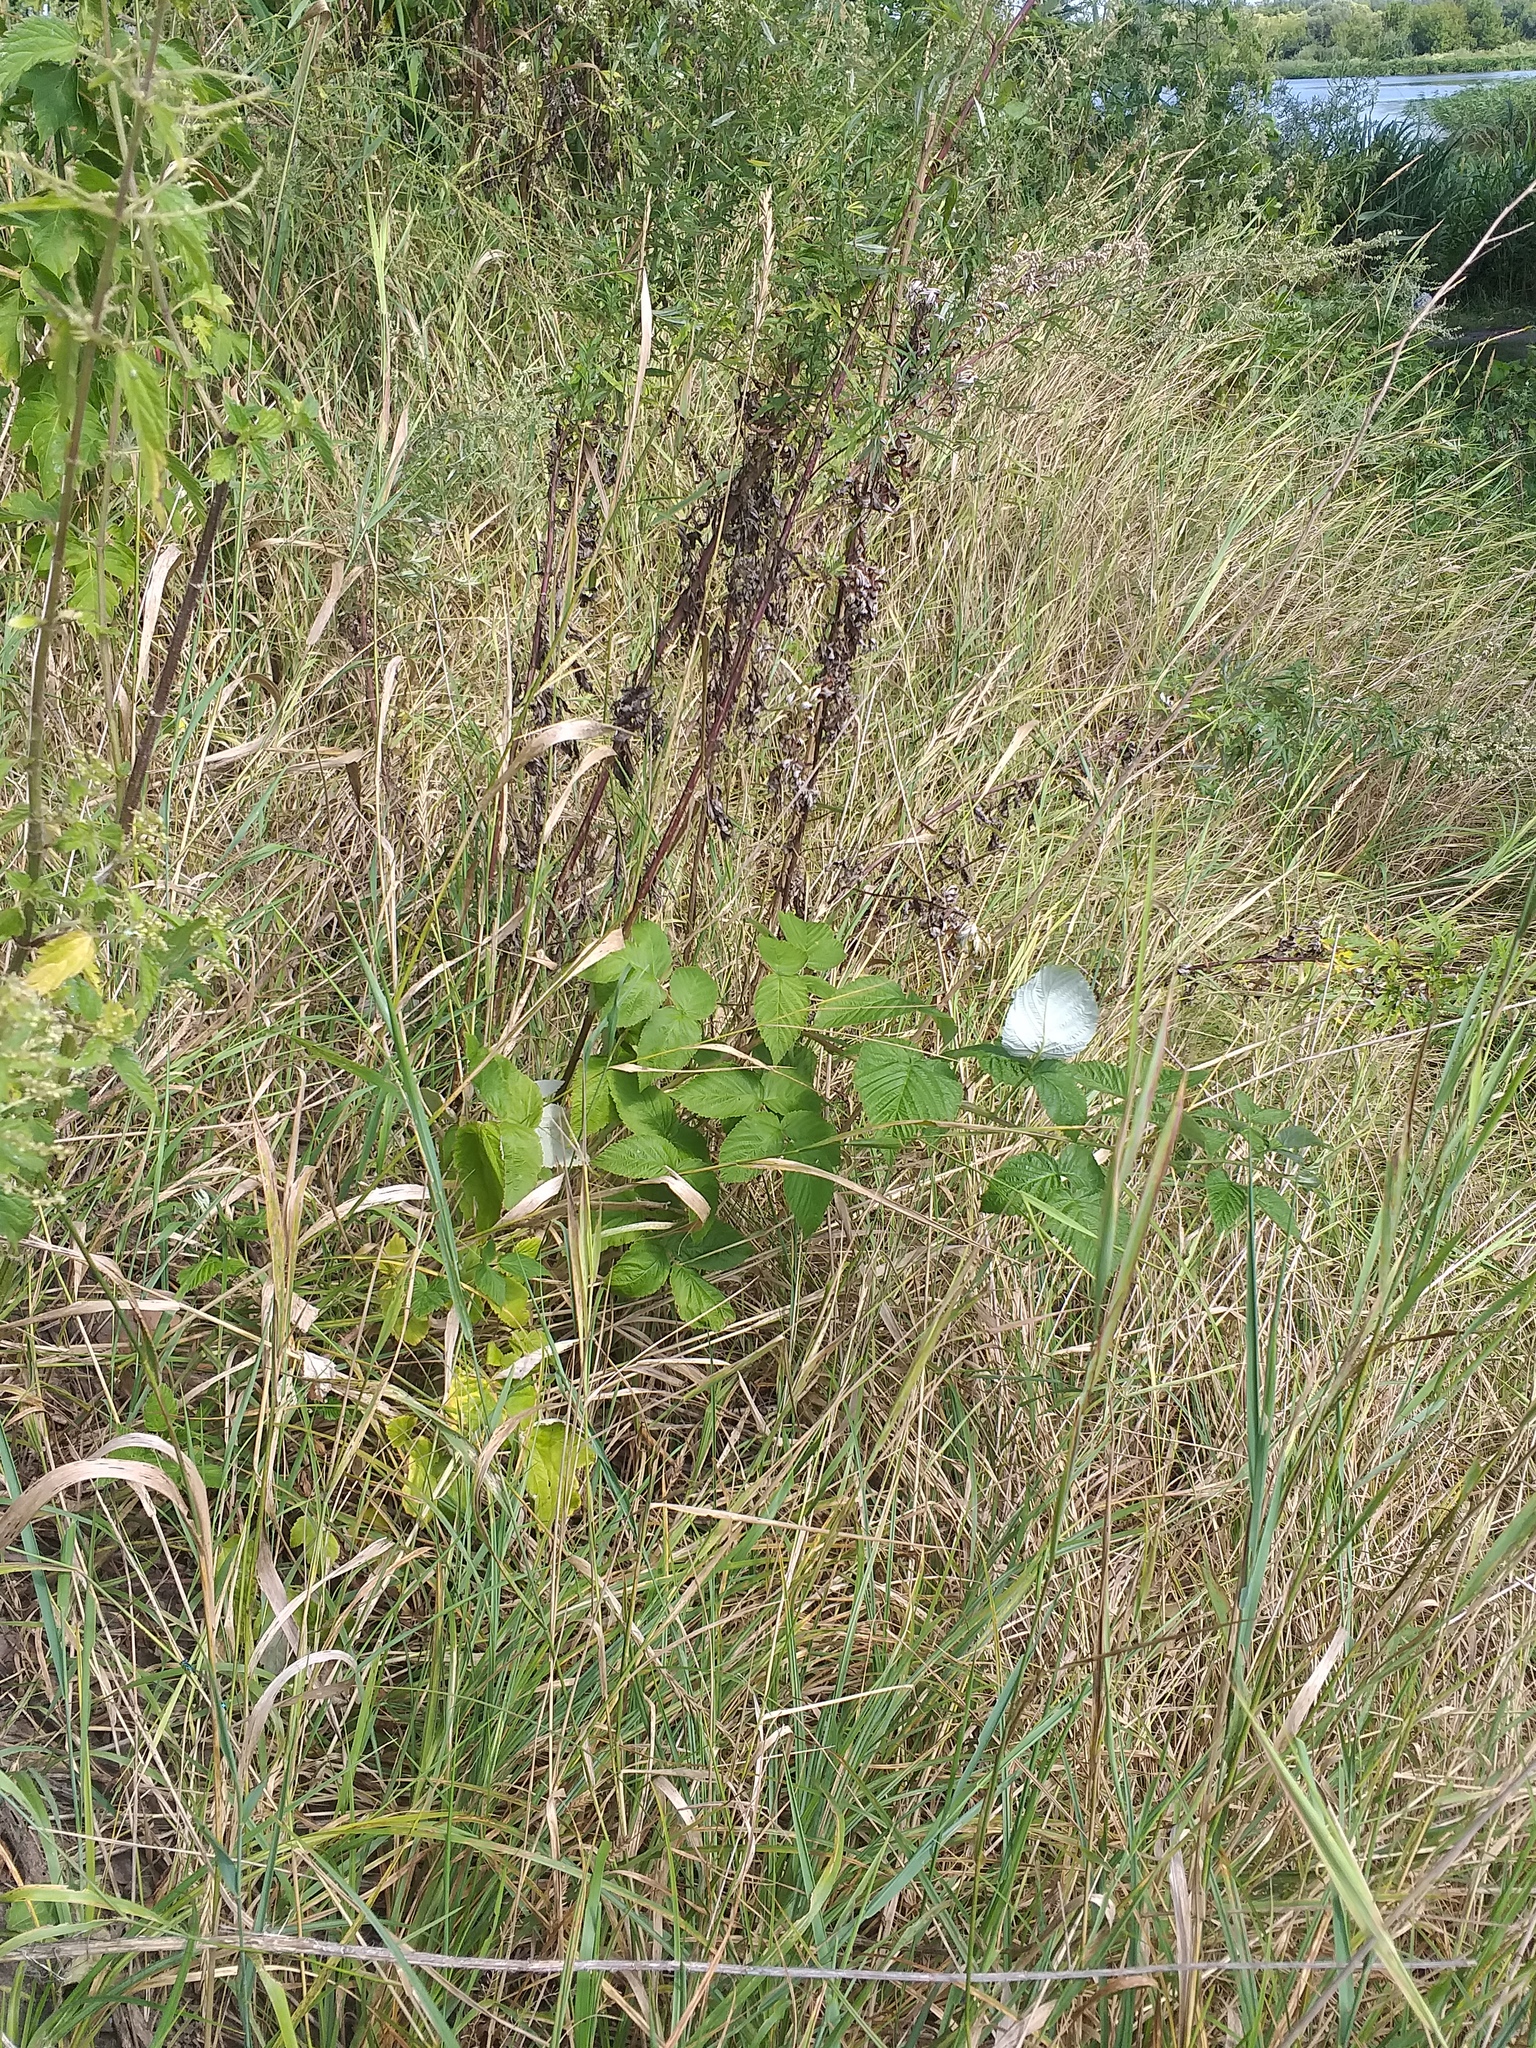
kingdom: Plantae
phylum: Tracheophyta
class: Magnoliopsida
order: Rosales
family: Rosaceae
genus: Rubus
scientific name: Rubus idaeus
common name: Raspberry
